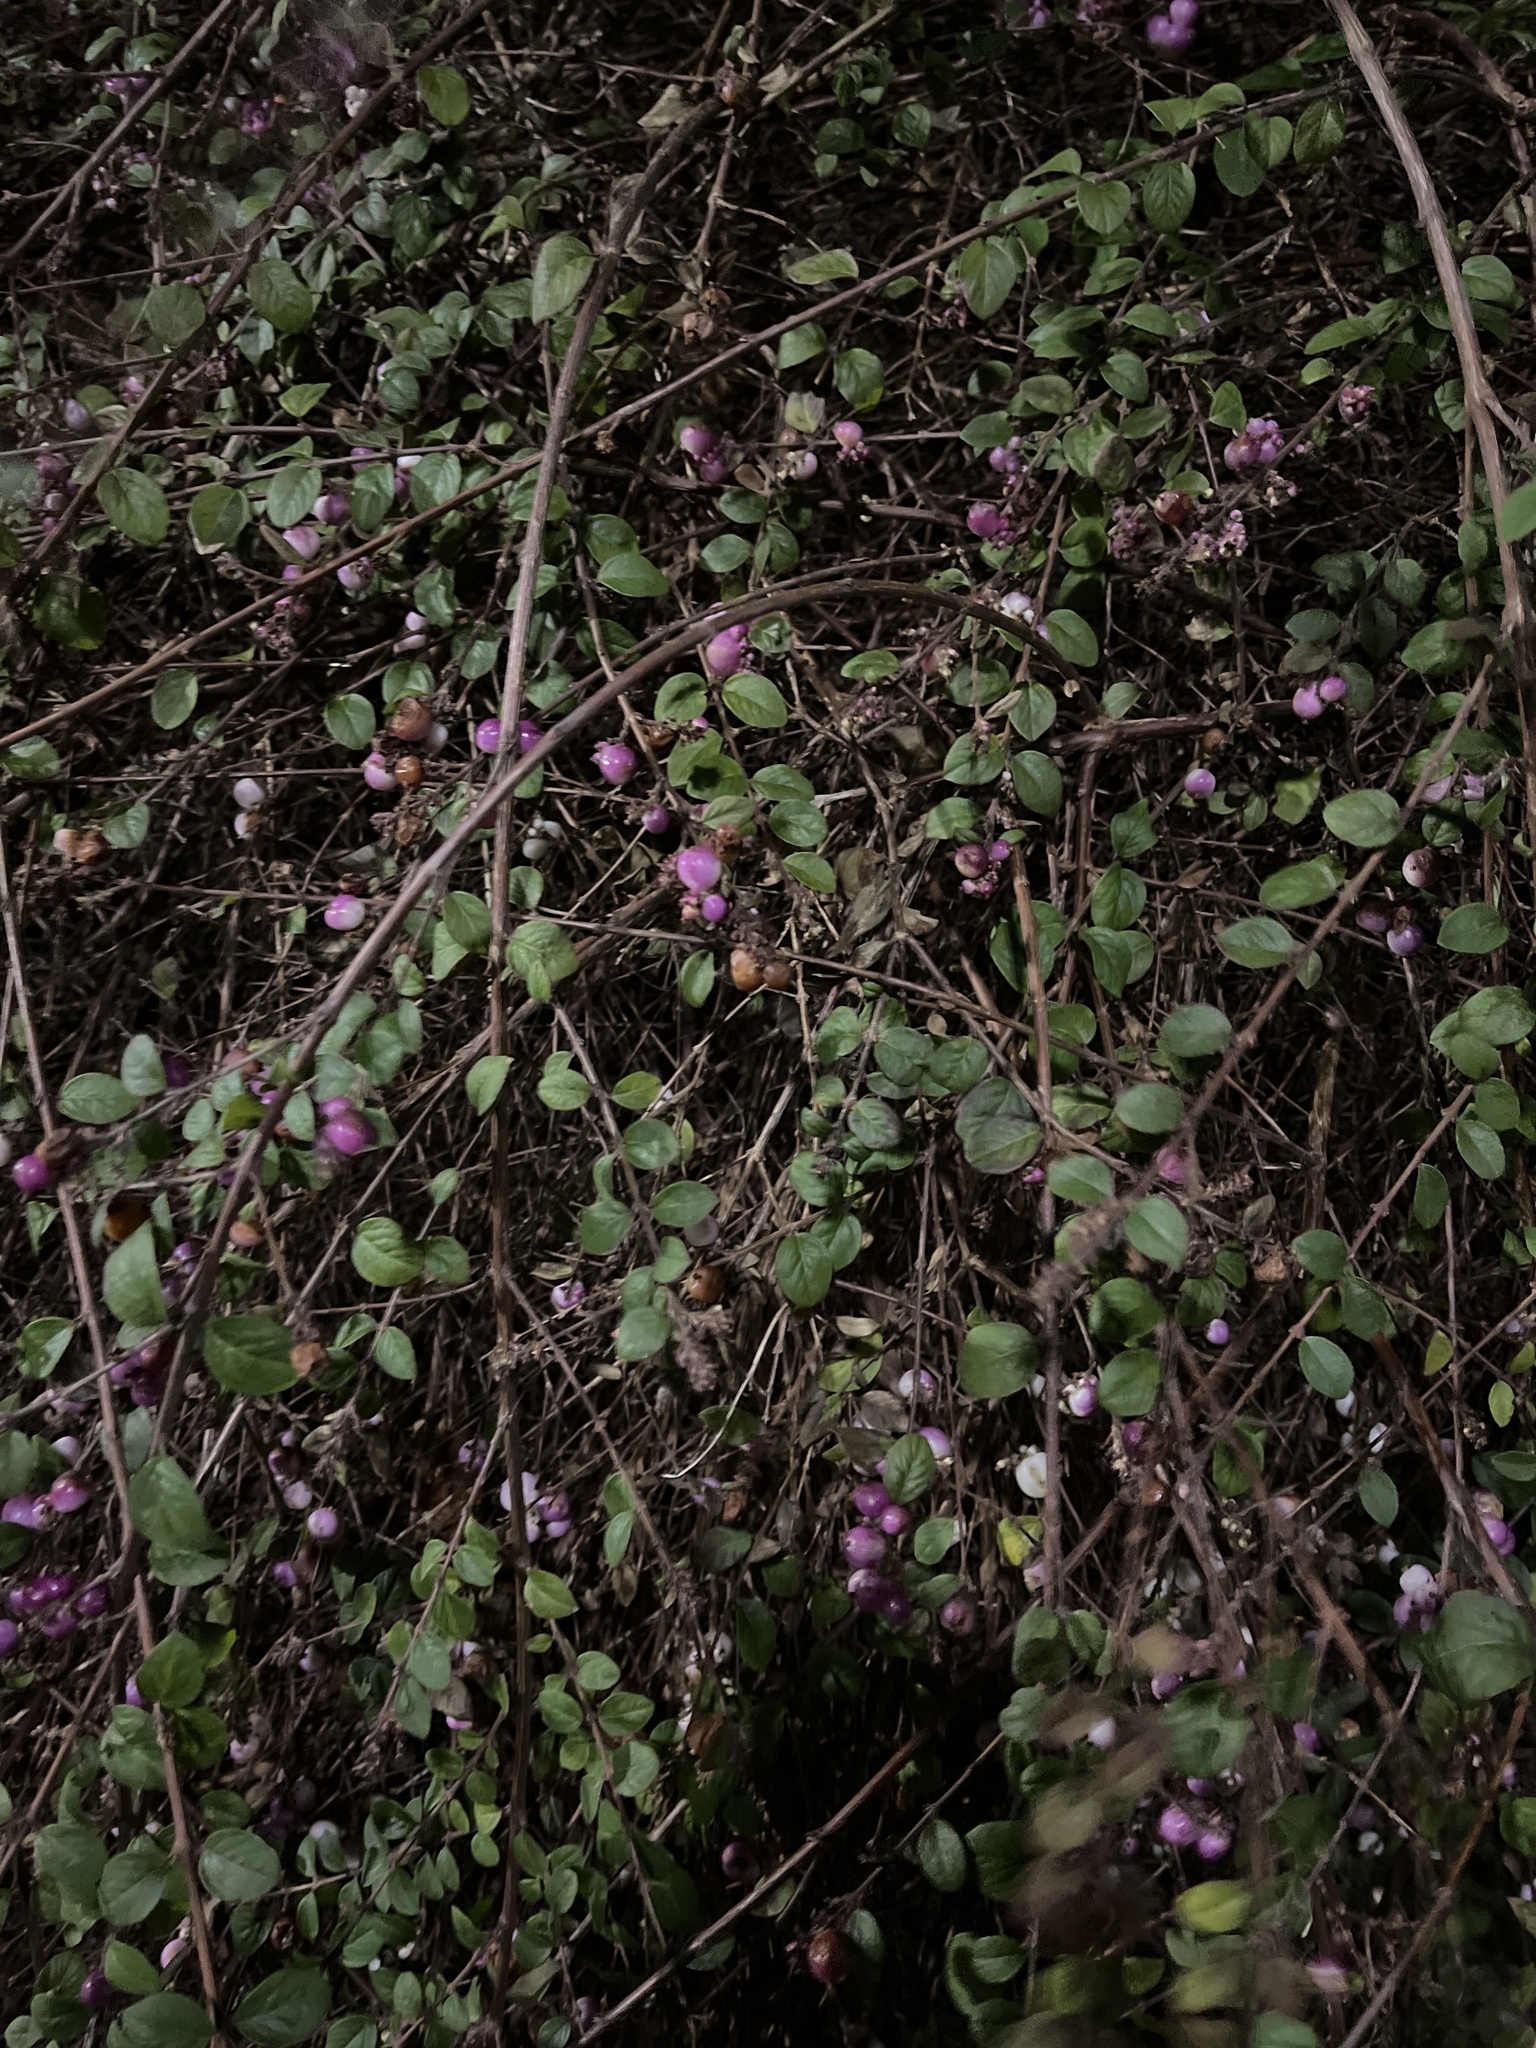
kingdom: Plantae
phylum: Tracheophyta
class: Magnoliopsida
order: Dipsacales
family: Caprifoliaceae
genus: Symphoricarpos
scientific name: Symphoricarpos chenaultii
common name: Hybrid coralberry
